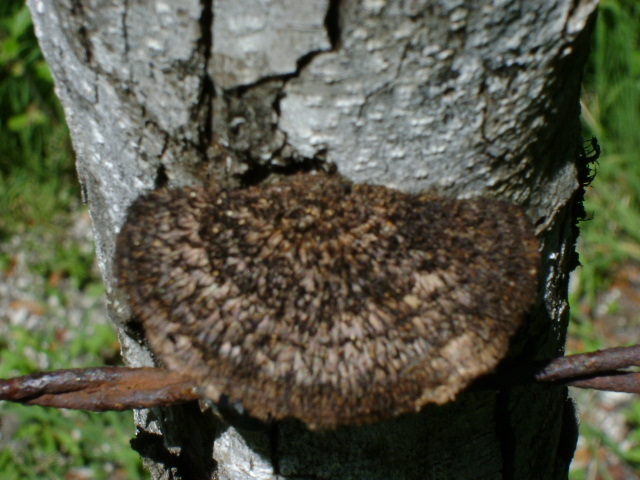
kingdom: Fungi
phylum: Basidiomycota
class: Agaricomycetes
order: Polyporales
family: Cerrenaceae
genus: Cerrena
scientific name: Cerrena hydnoides
